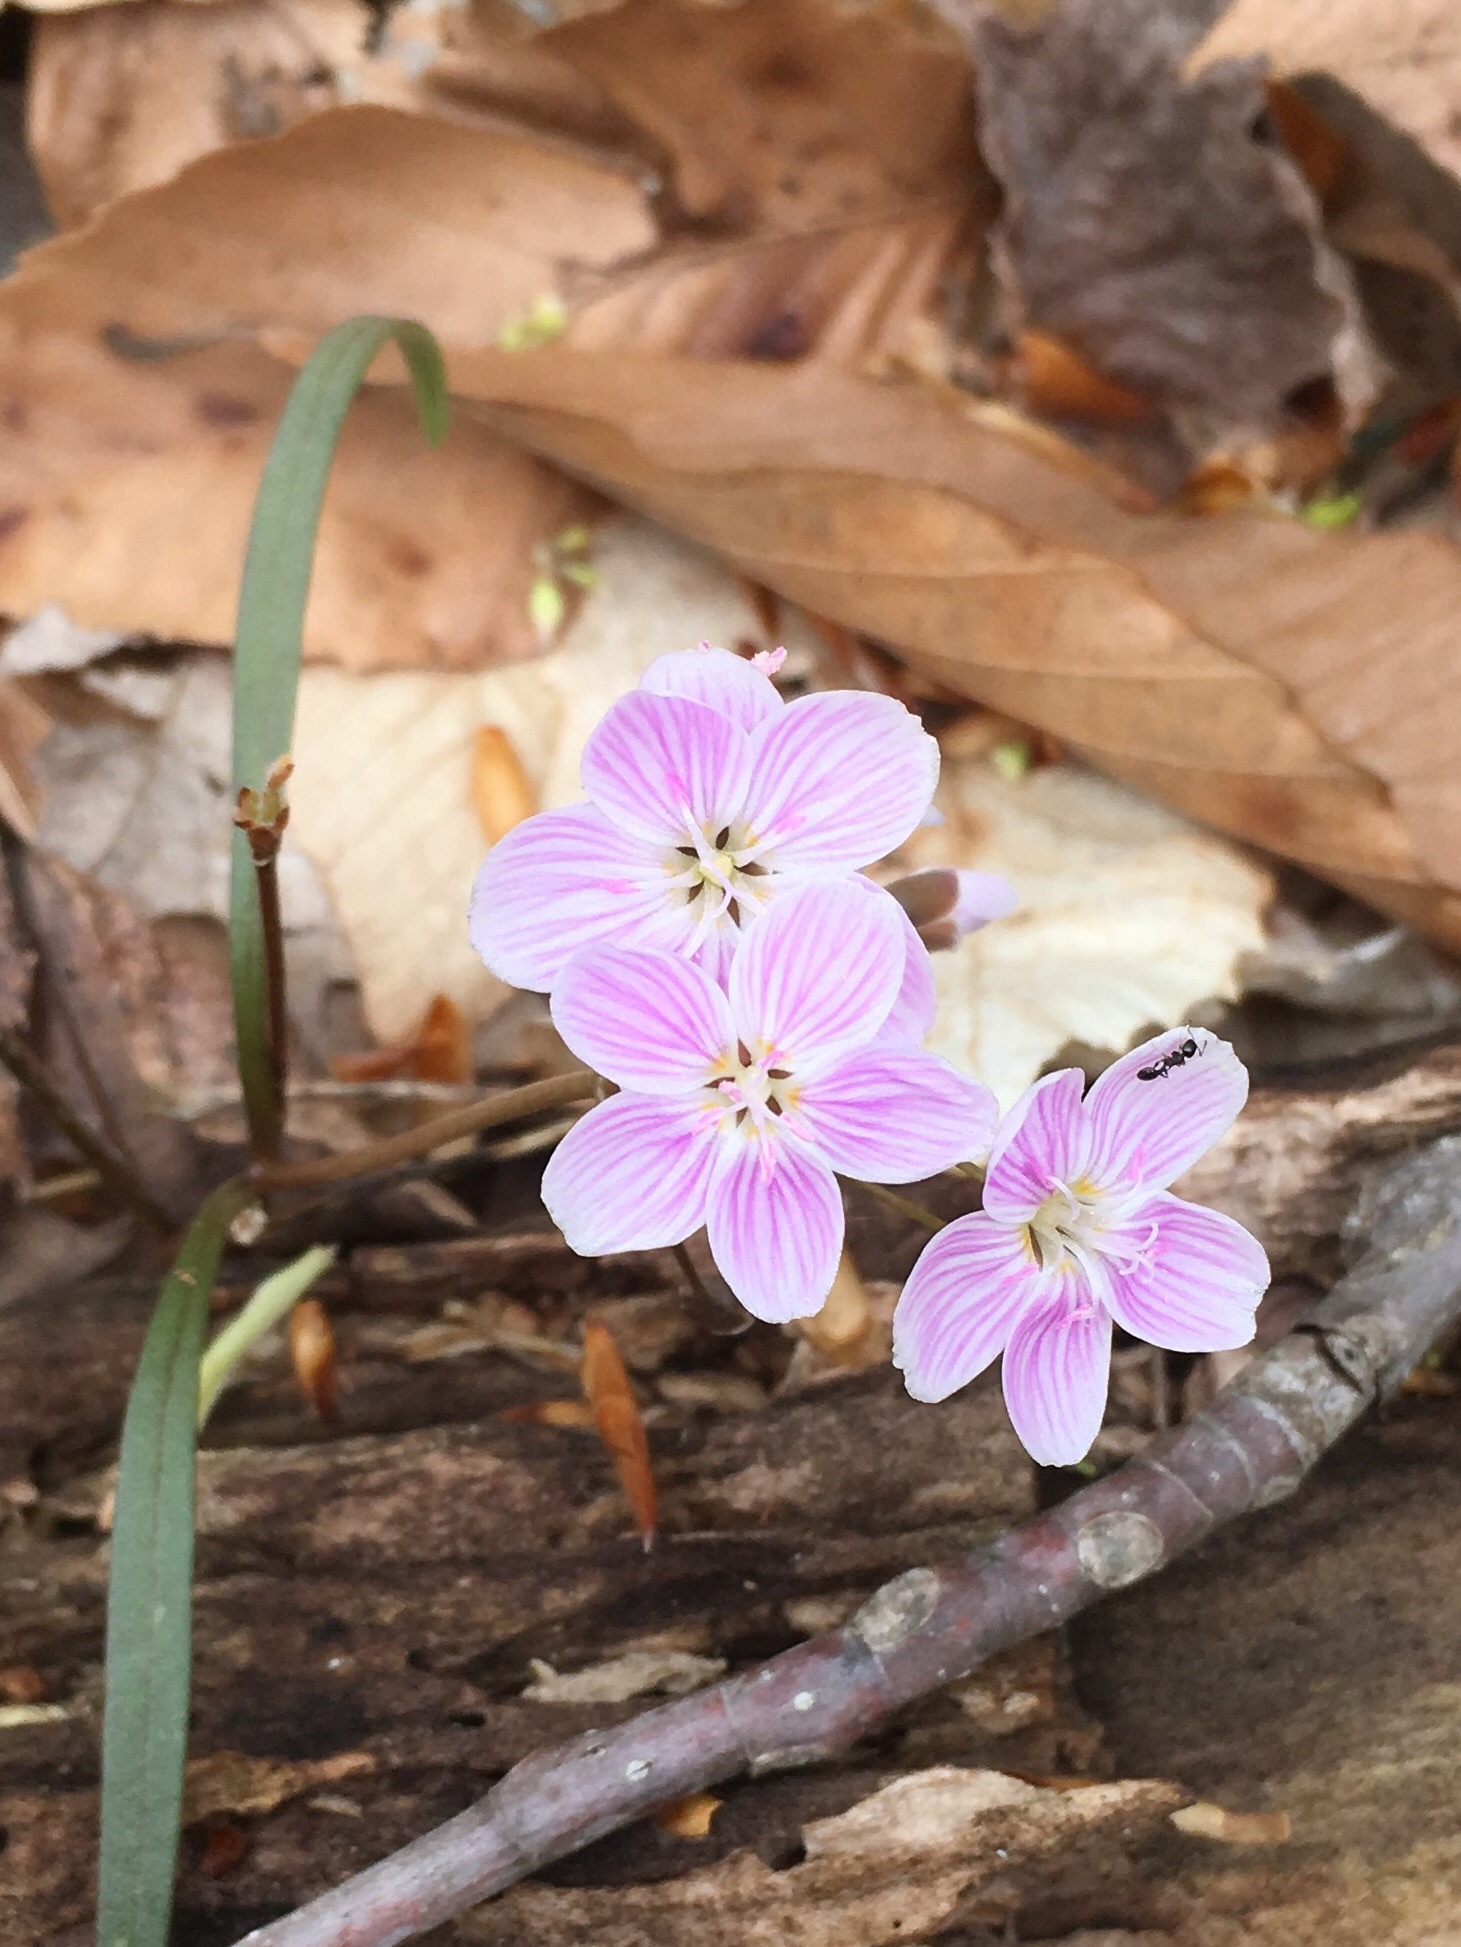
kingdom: Plantae
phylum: Tracheophyta
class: Magnoliopsida
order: Caryophyllales
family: Montiaceae
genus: Claytonia
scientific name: Claytonia virginica
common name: Virginia springbeauty
